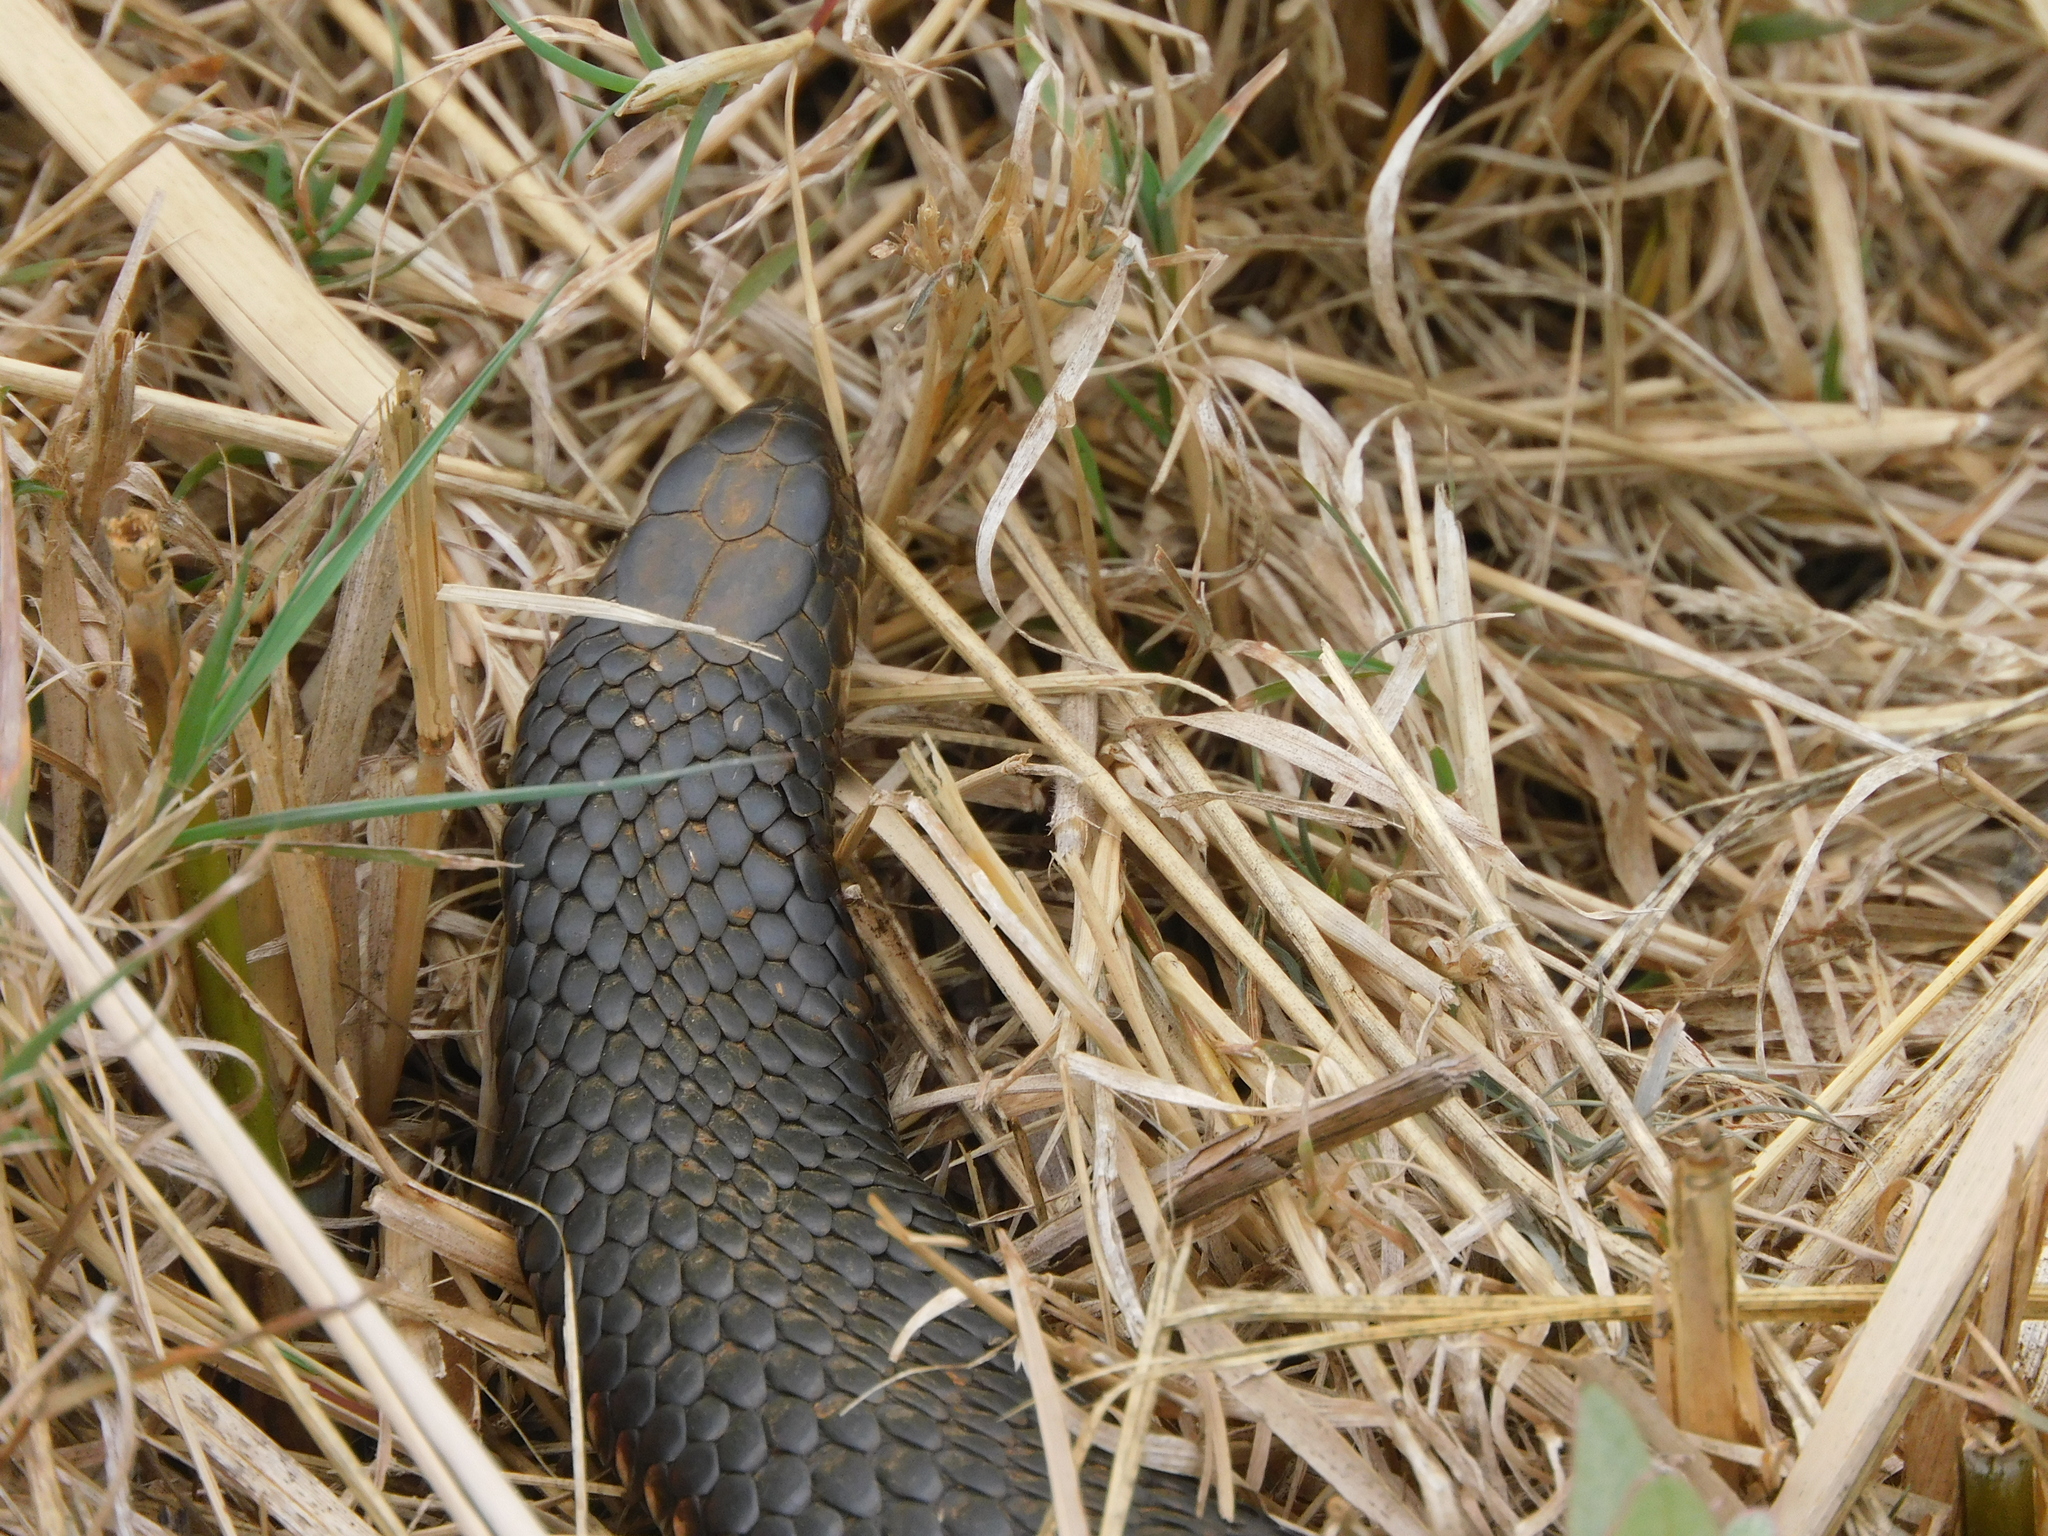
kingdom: Animalia
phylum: Chordata
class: Squamata
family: Elapidae
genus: Austrelaps
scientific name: Austrelaps superbus
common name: Copperhead snake
